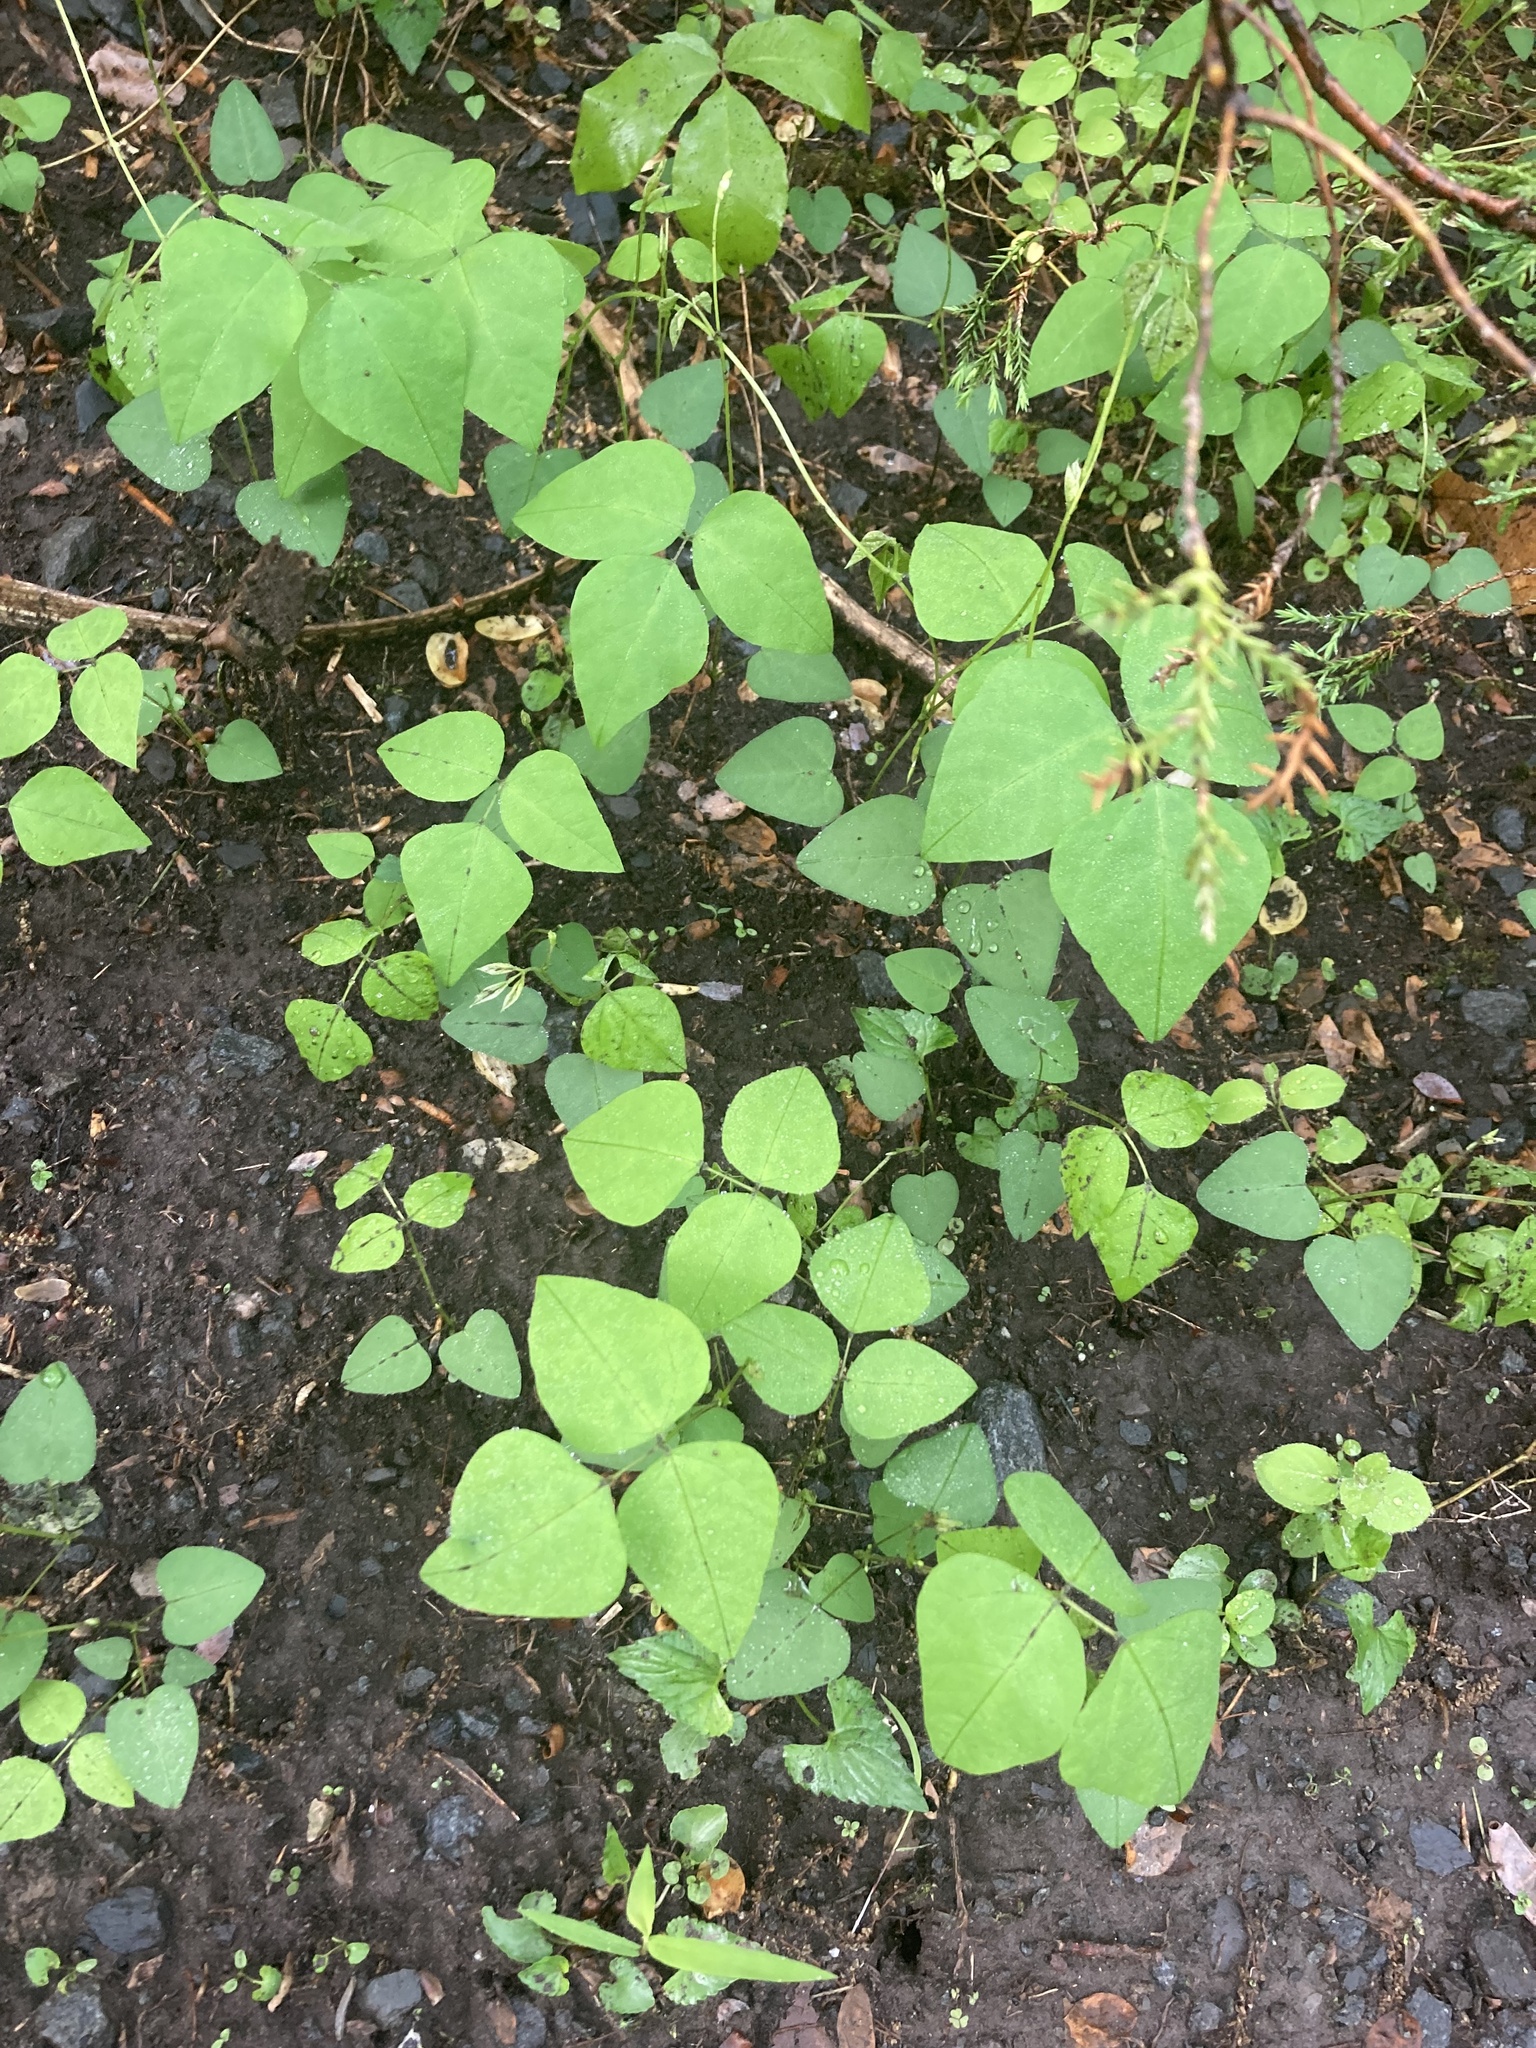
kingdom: Plantae
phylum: Tracheophyta
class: Magnoliopsida
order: Fabales
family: Fabaceae
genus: Amphicarpaea
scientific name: Amphicarpaea bracteata
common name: American hog peanut
